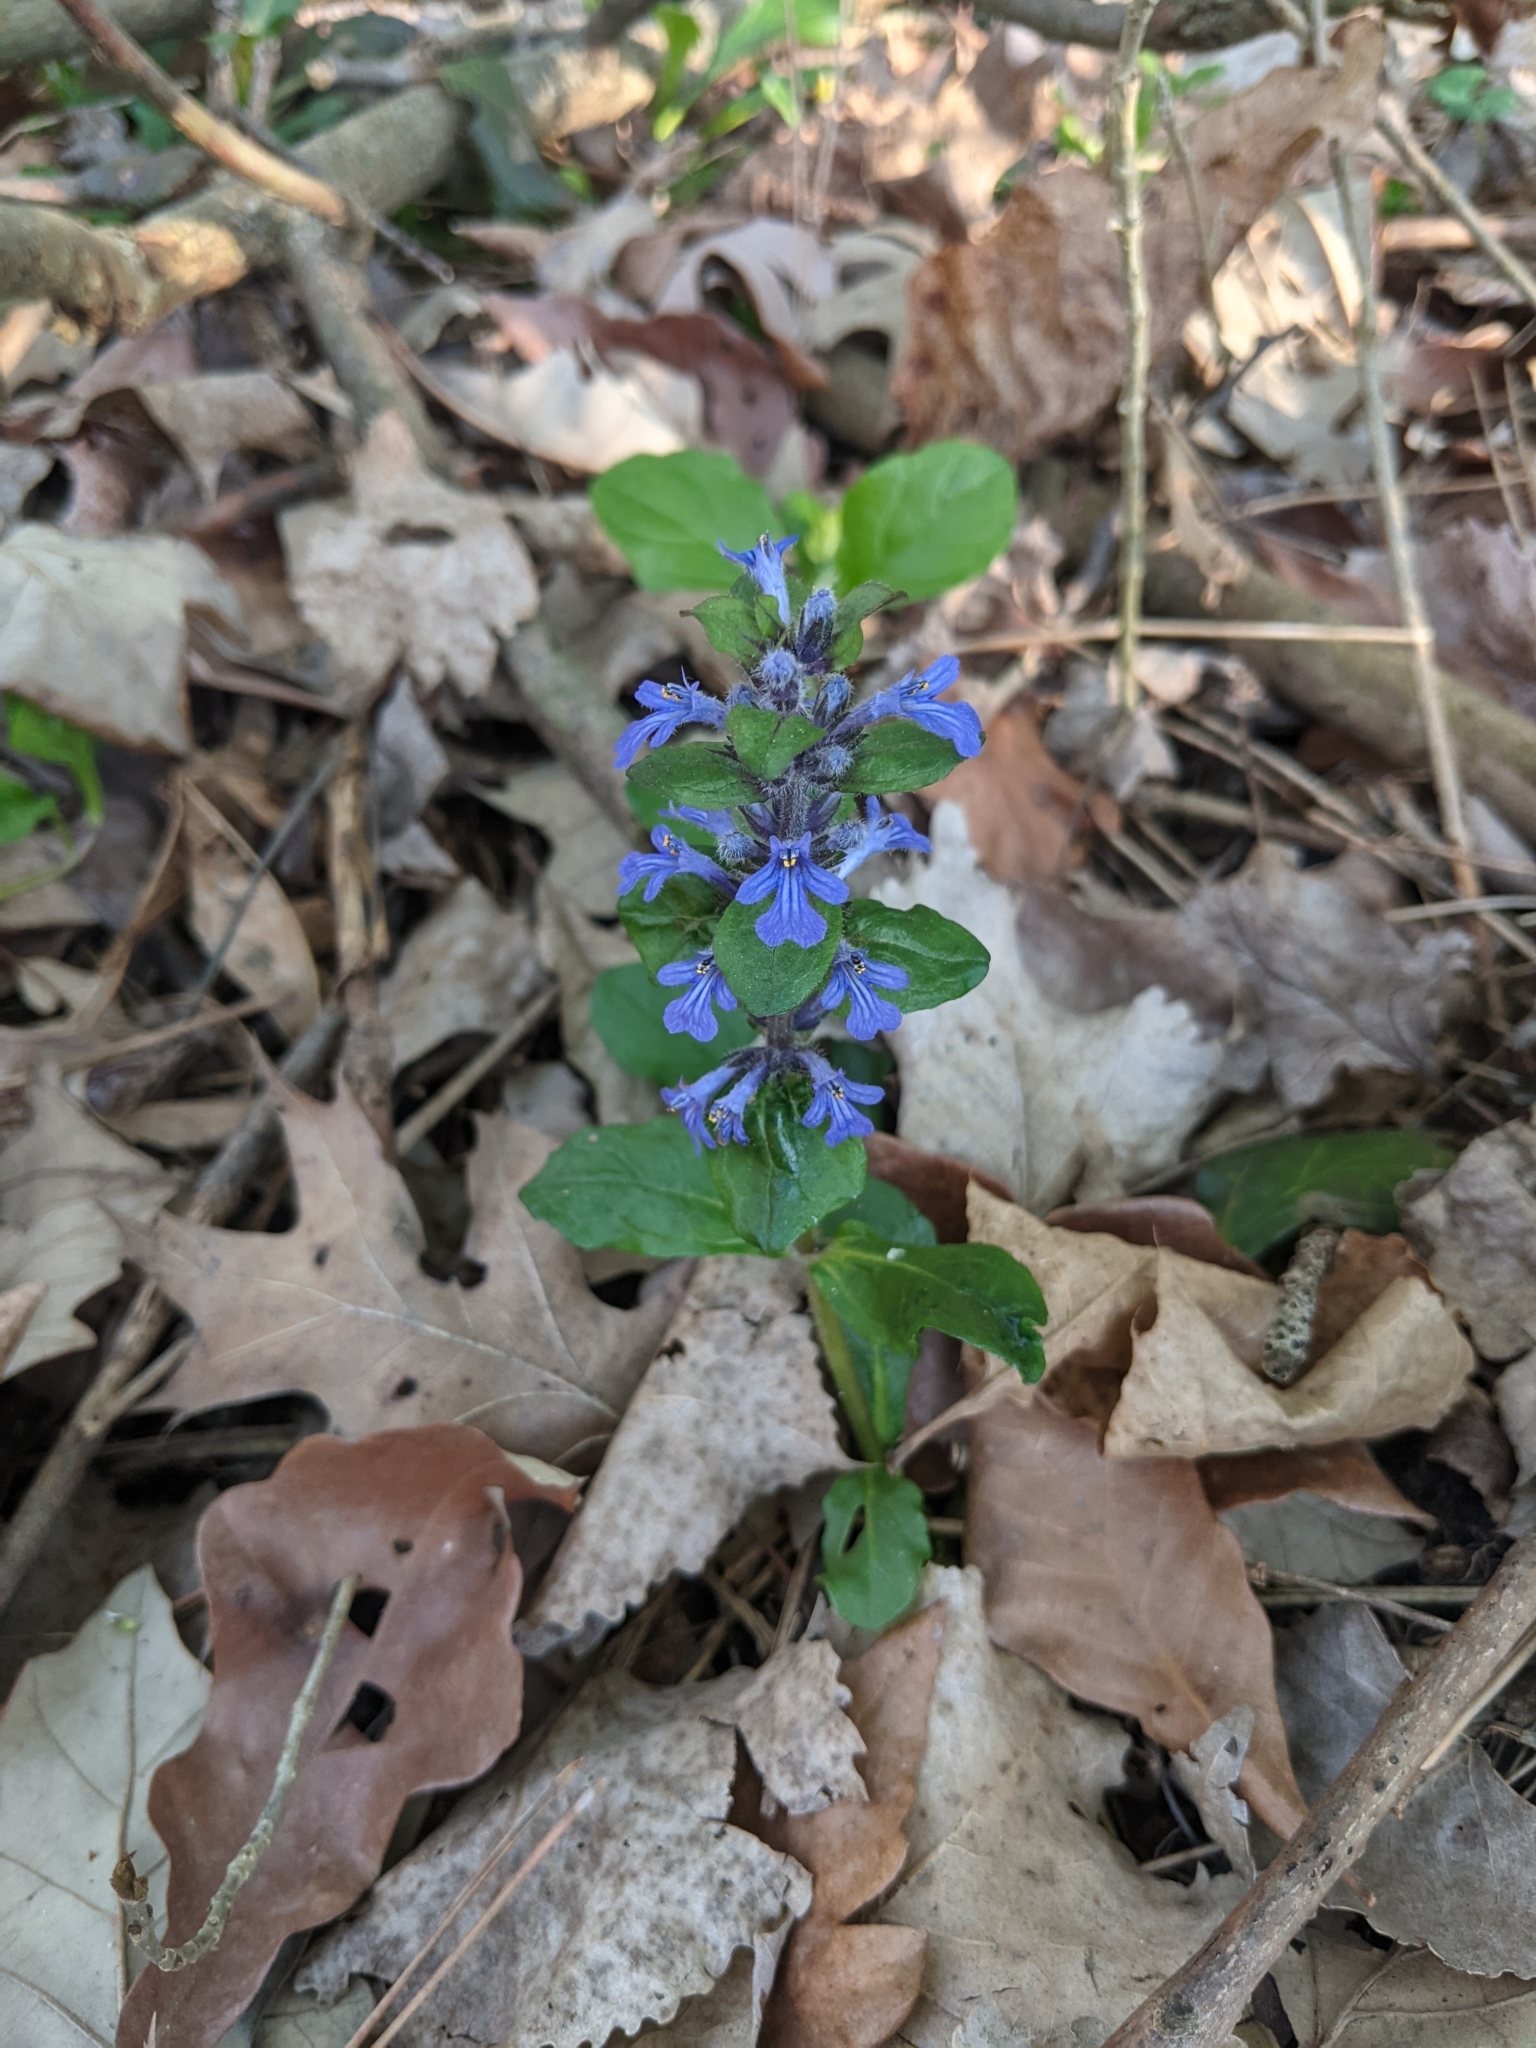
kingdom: Plantae
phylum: Tracheophyta
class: Magnoliopsida
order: Lamiales
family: Lamiaceae
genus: Ajuga
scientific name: Ajuga reptans
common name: Bugle
